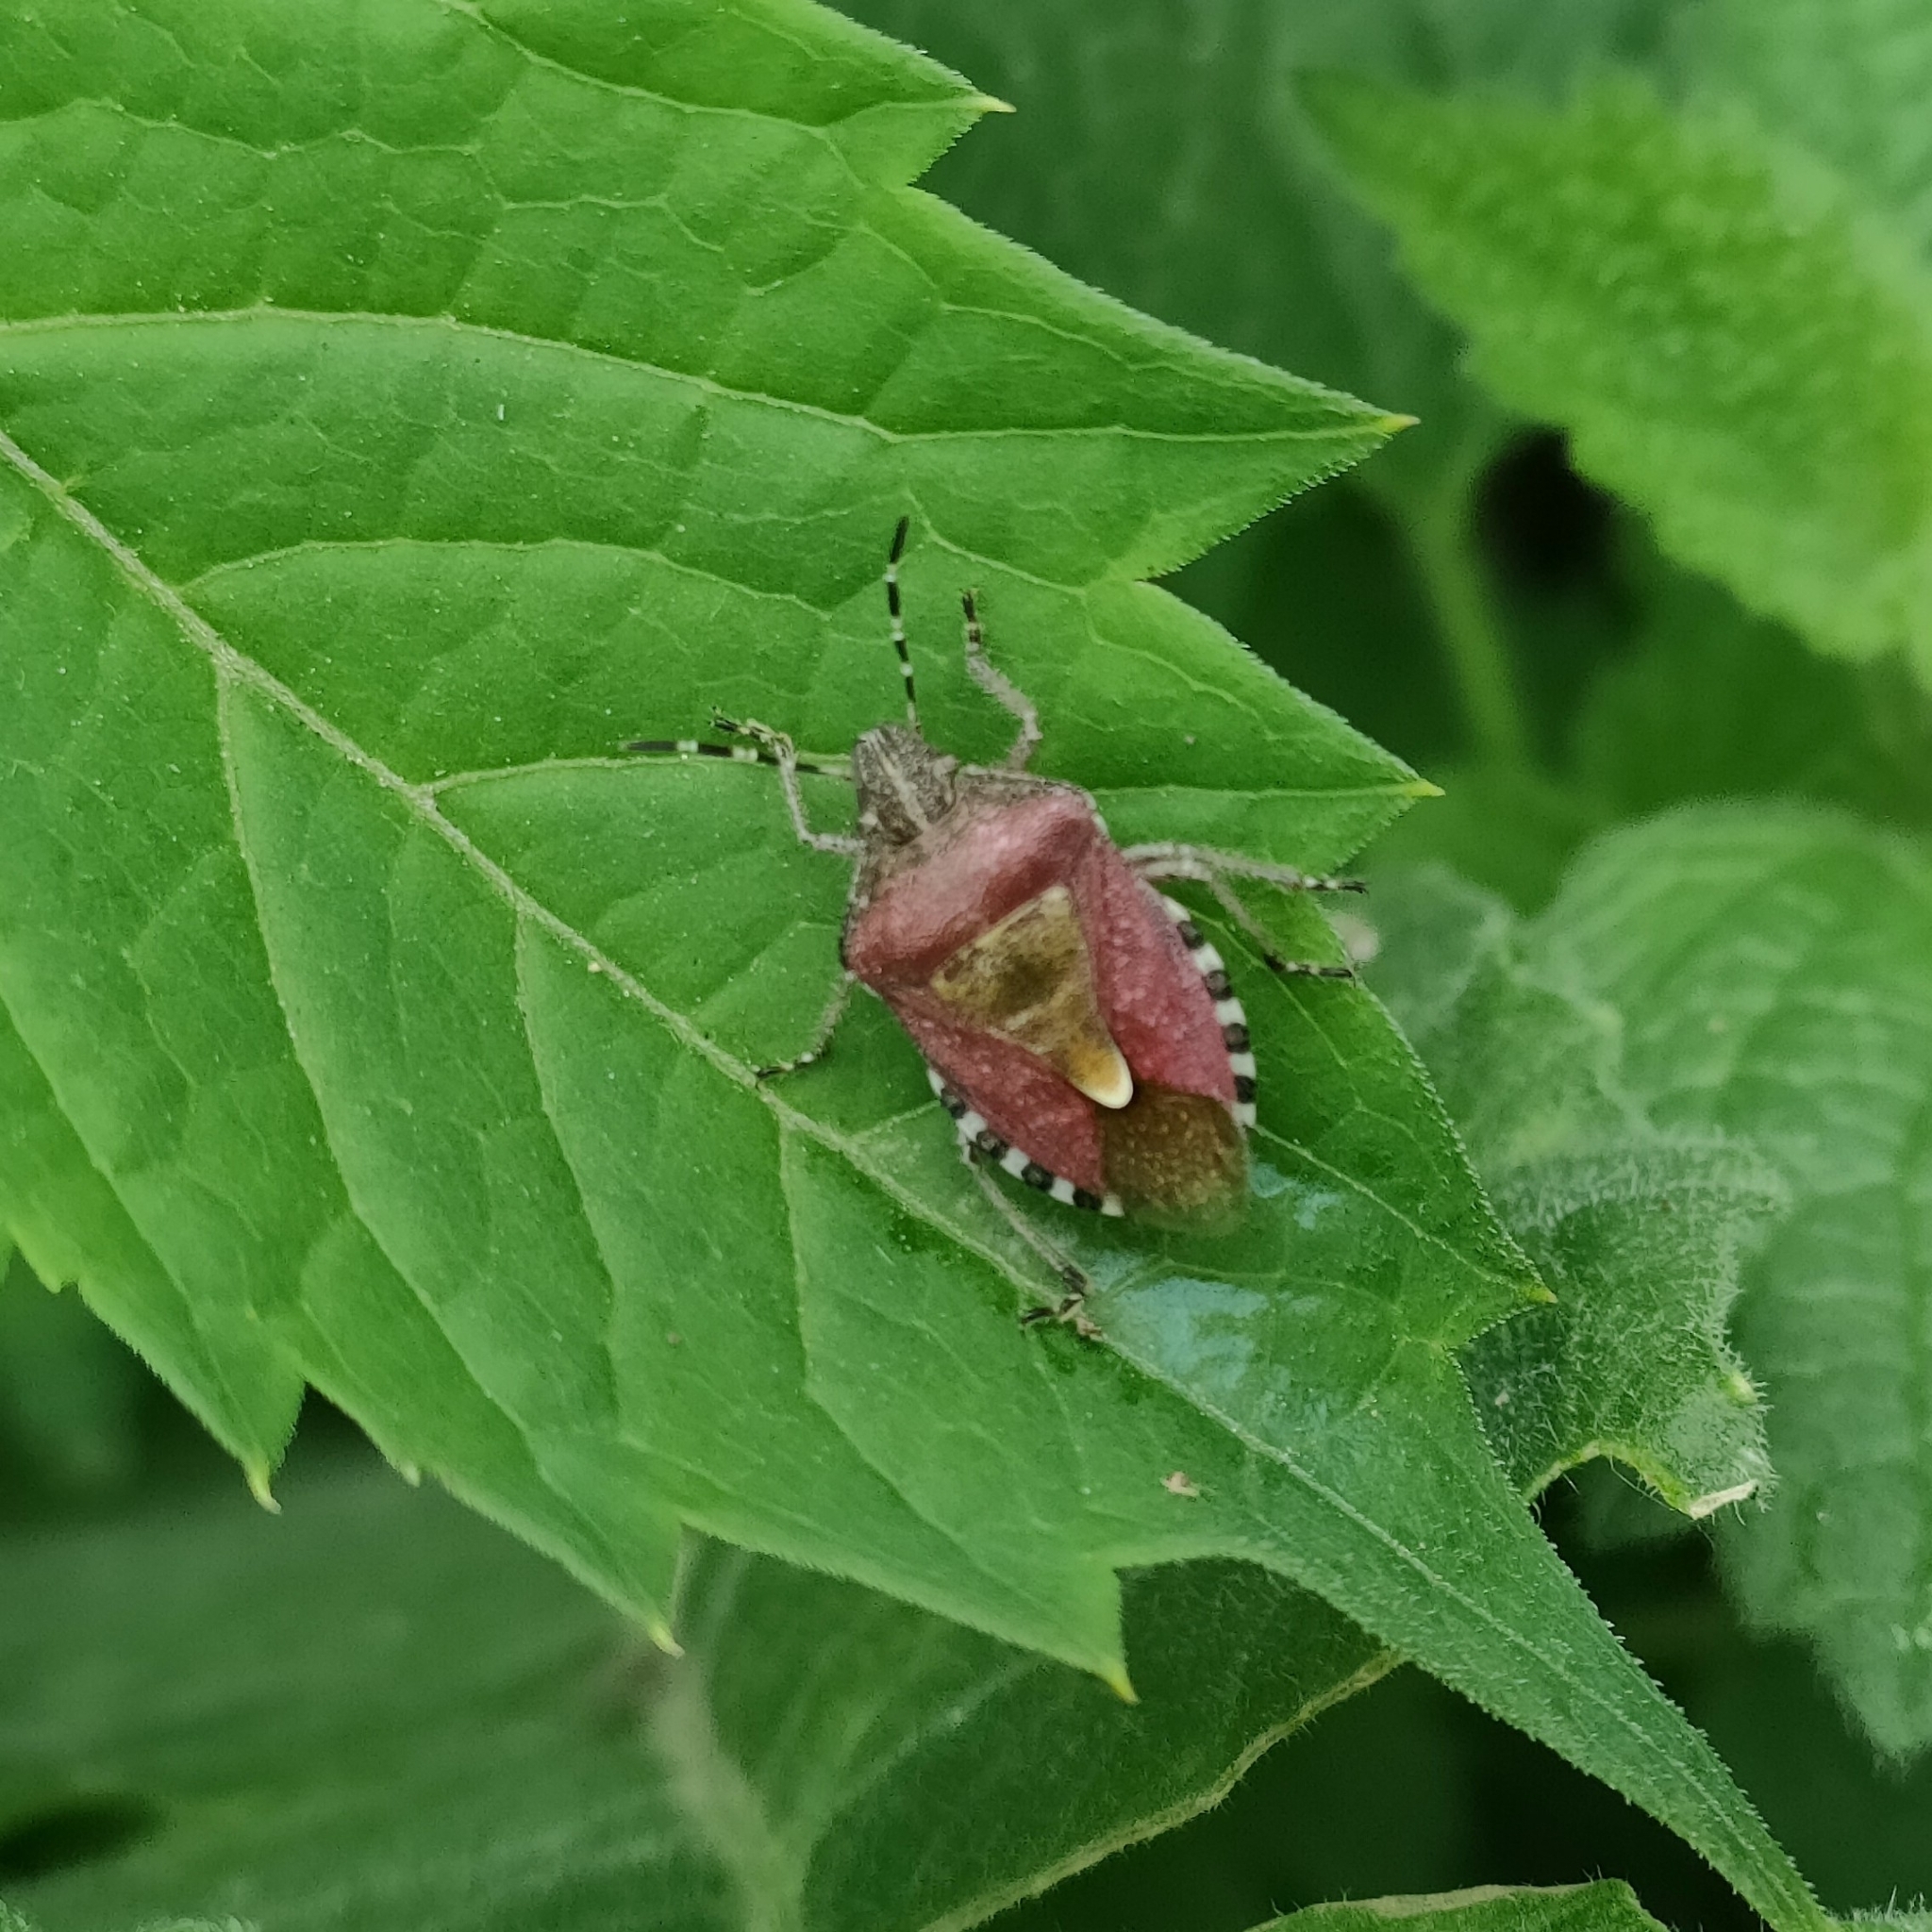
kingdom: Animalia
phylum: Arthropoda
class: Insecta
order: Hemiptera
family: Pentatomidae
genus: Dolycoris
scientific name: Dolycoris baccarum
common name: Sloe bug
